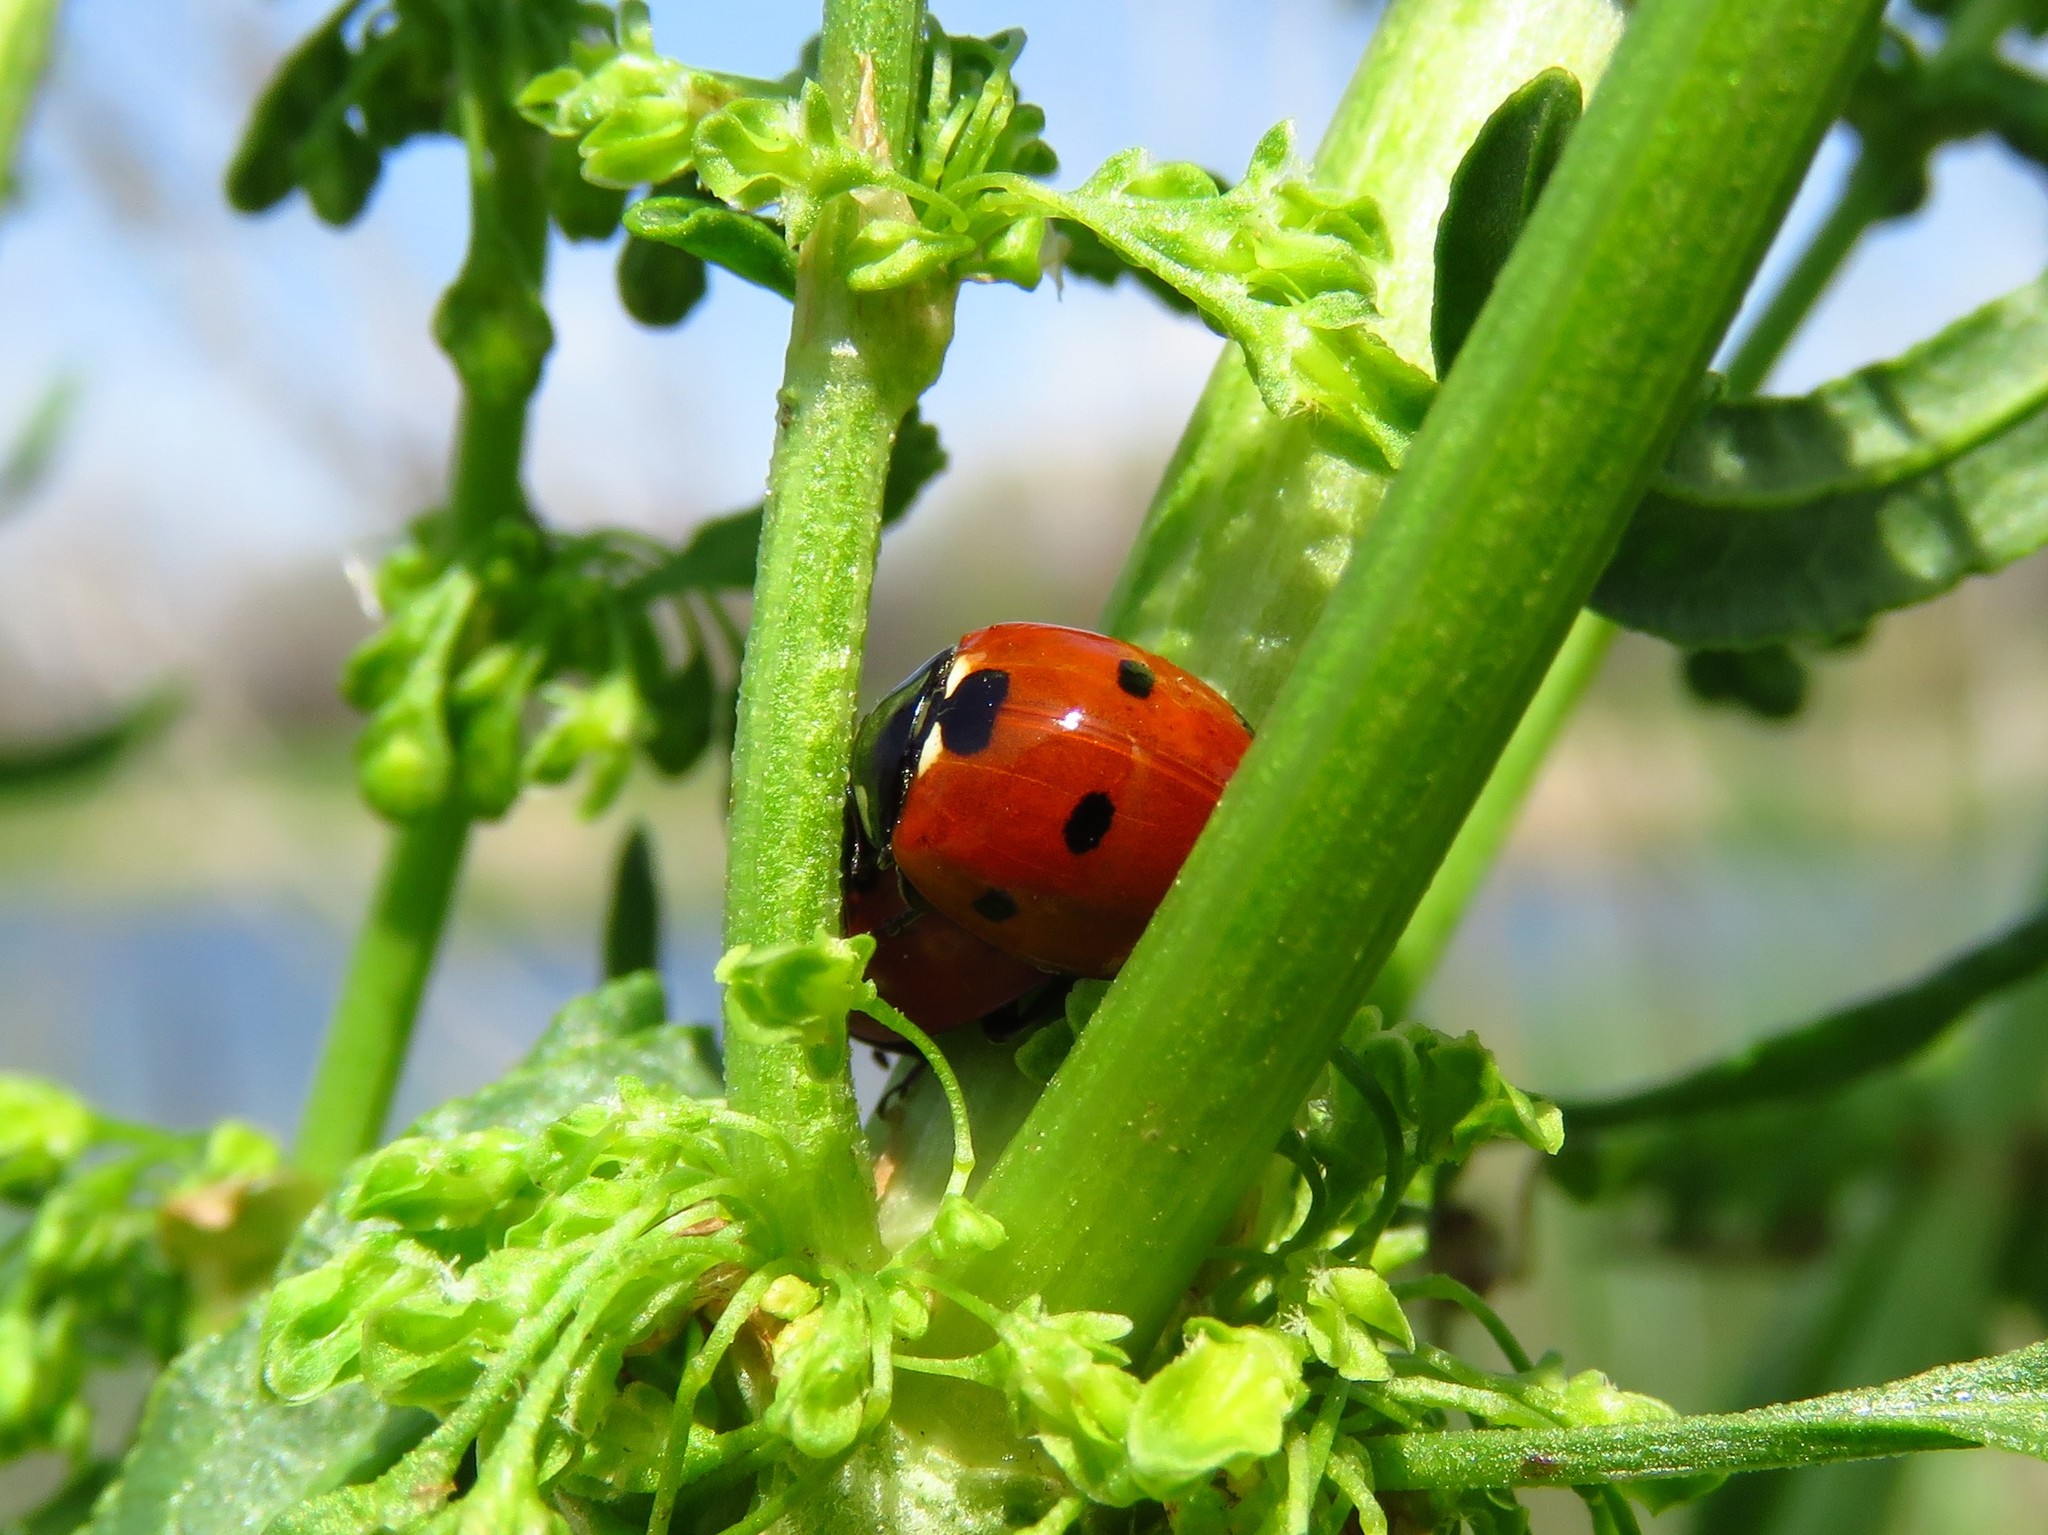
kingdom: Animalia
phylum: Arthropoda
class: Insecta
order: Coleoptera
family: Coccinellidae
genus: Coccinella
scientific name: Coccinella septempunctata
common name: Sevenspotted lady beetle
